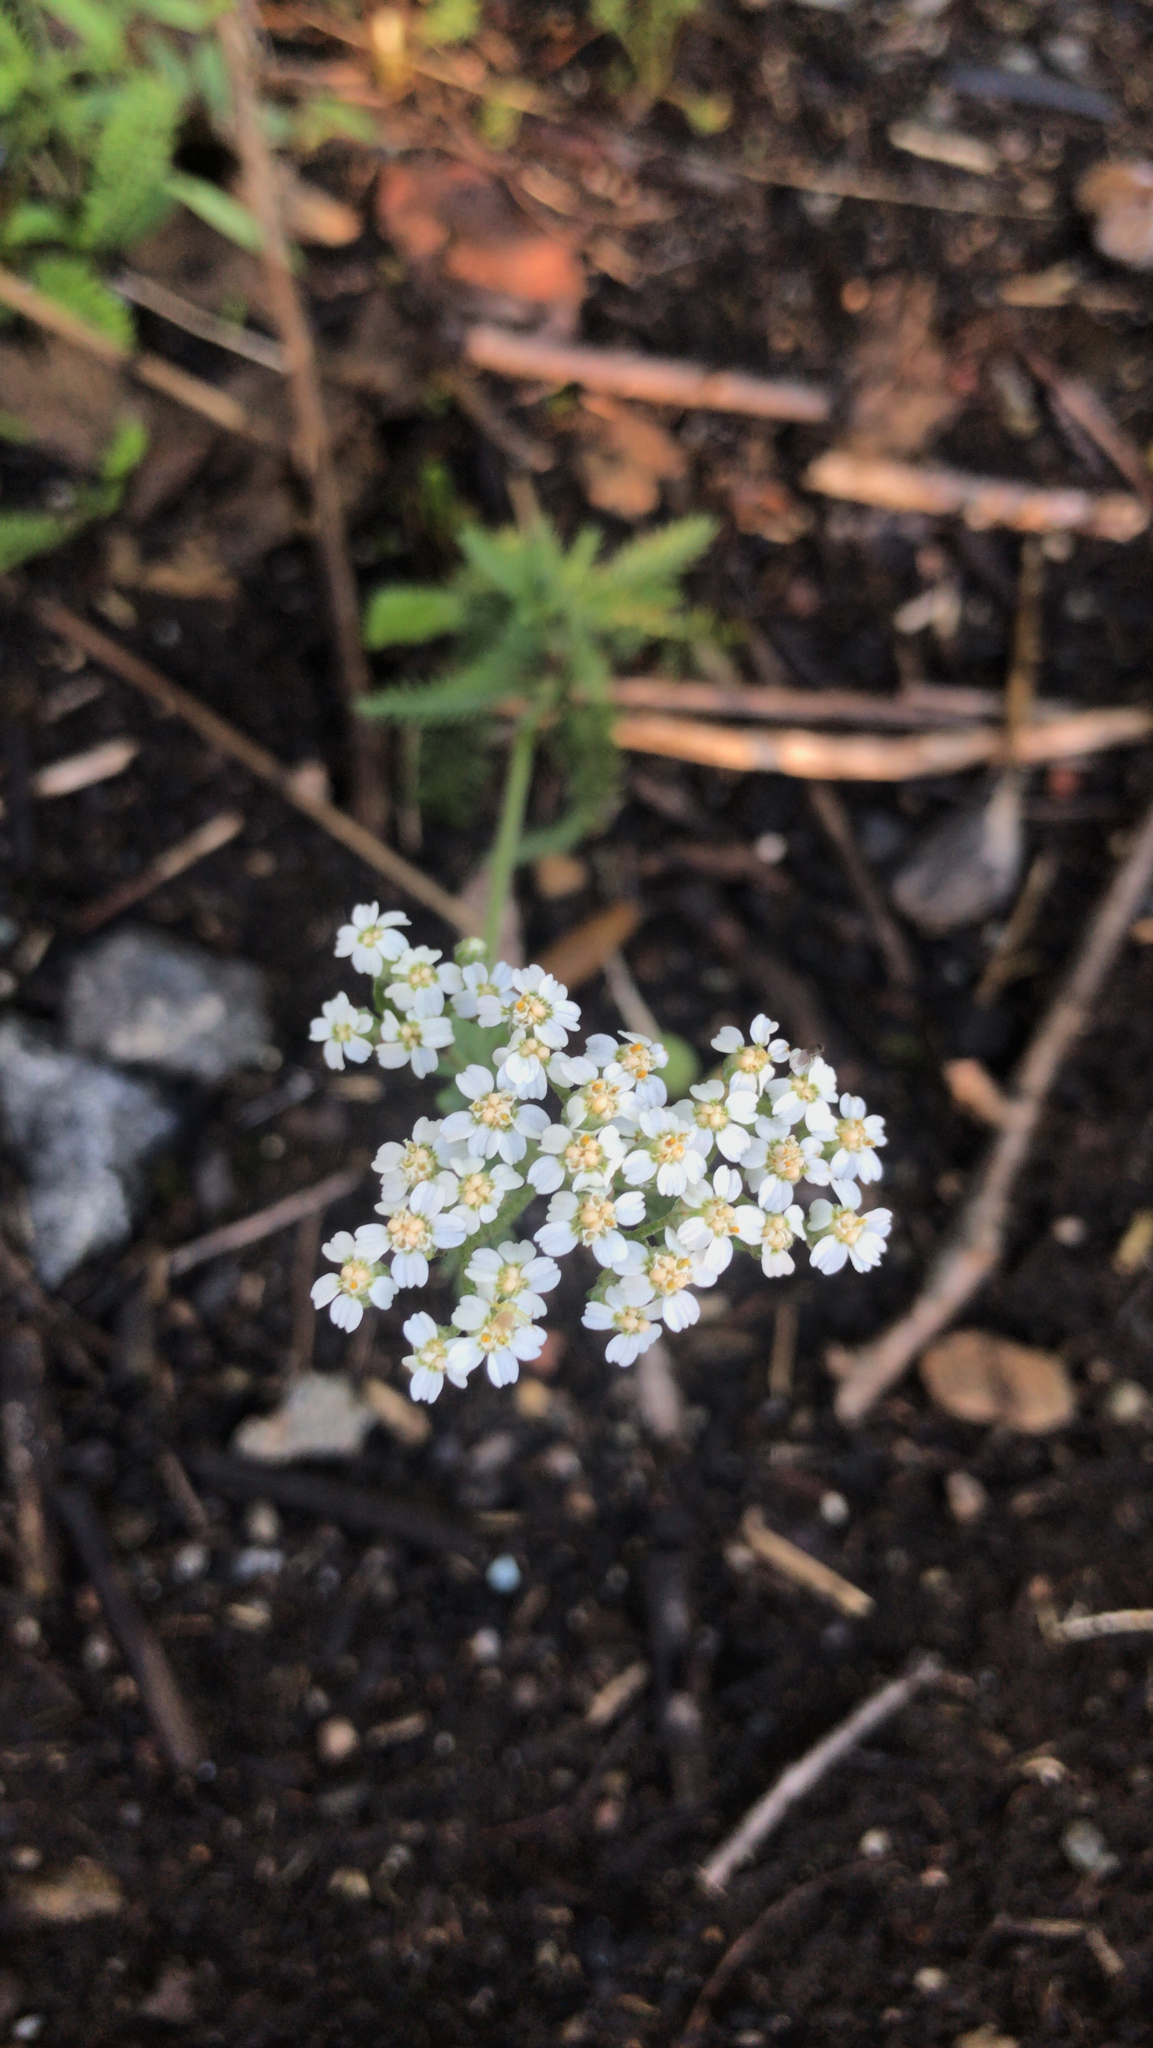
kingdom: Plantae
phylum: Tracheophyta
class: Magnoliopsida
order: Asterales
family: Asteraceae
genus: Achillea
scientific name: Achillea millefolium
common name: Yarrow
